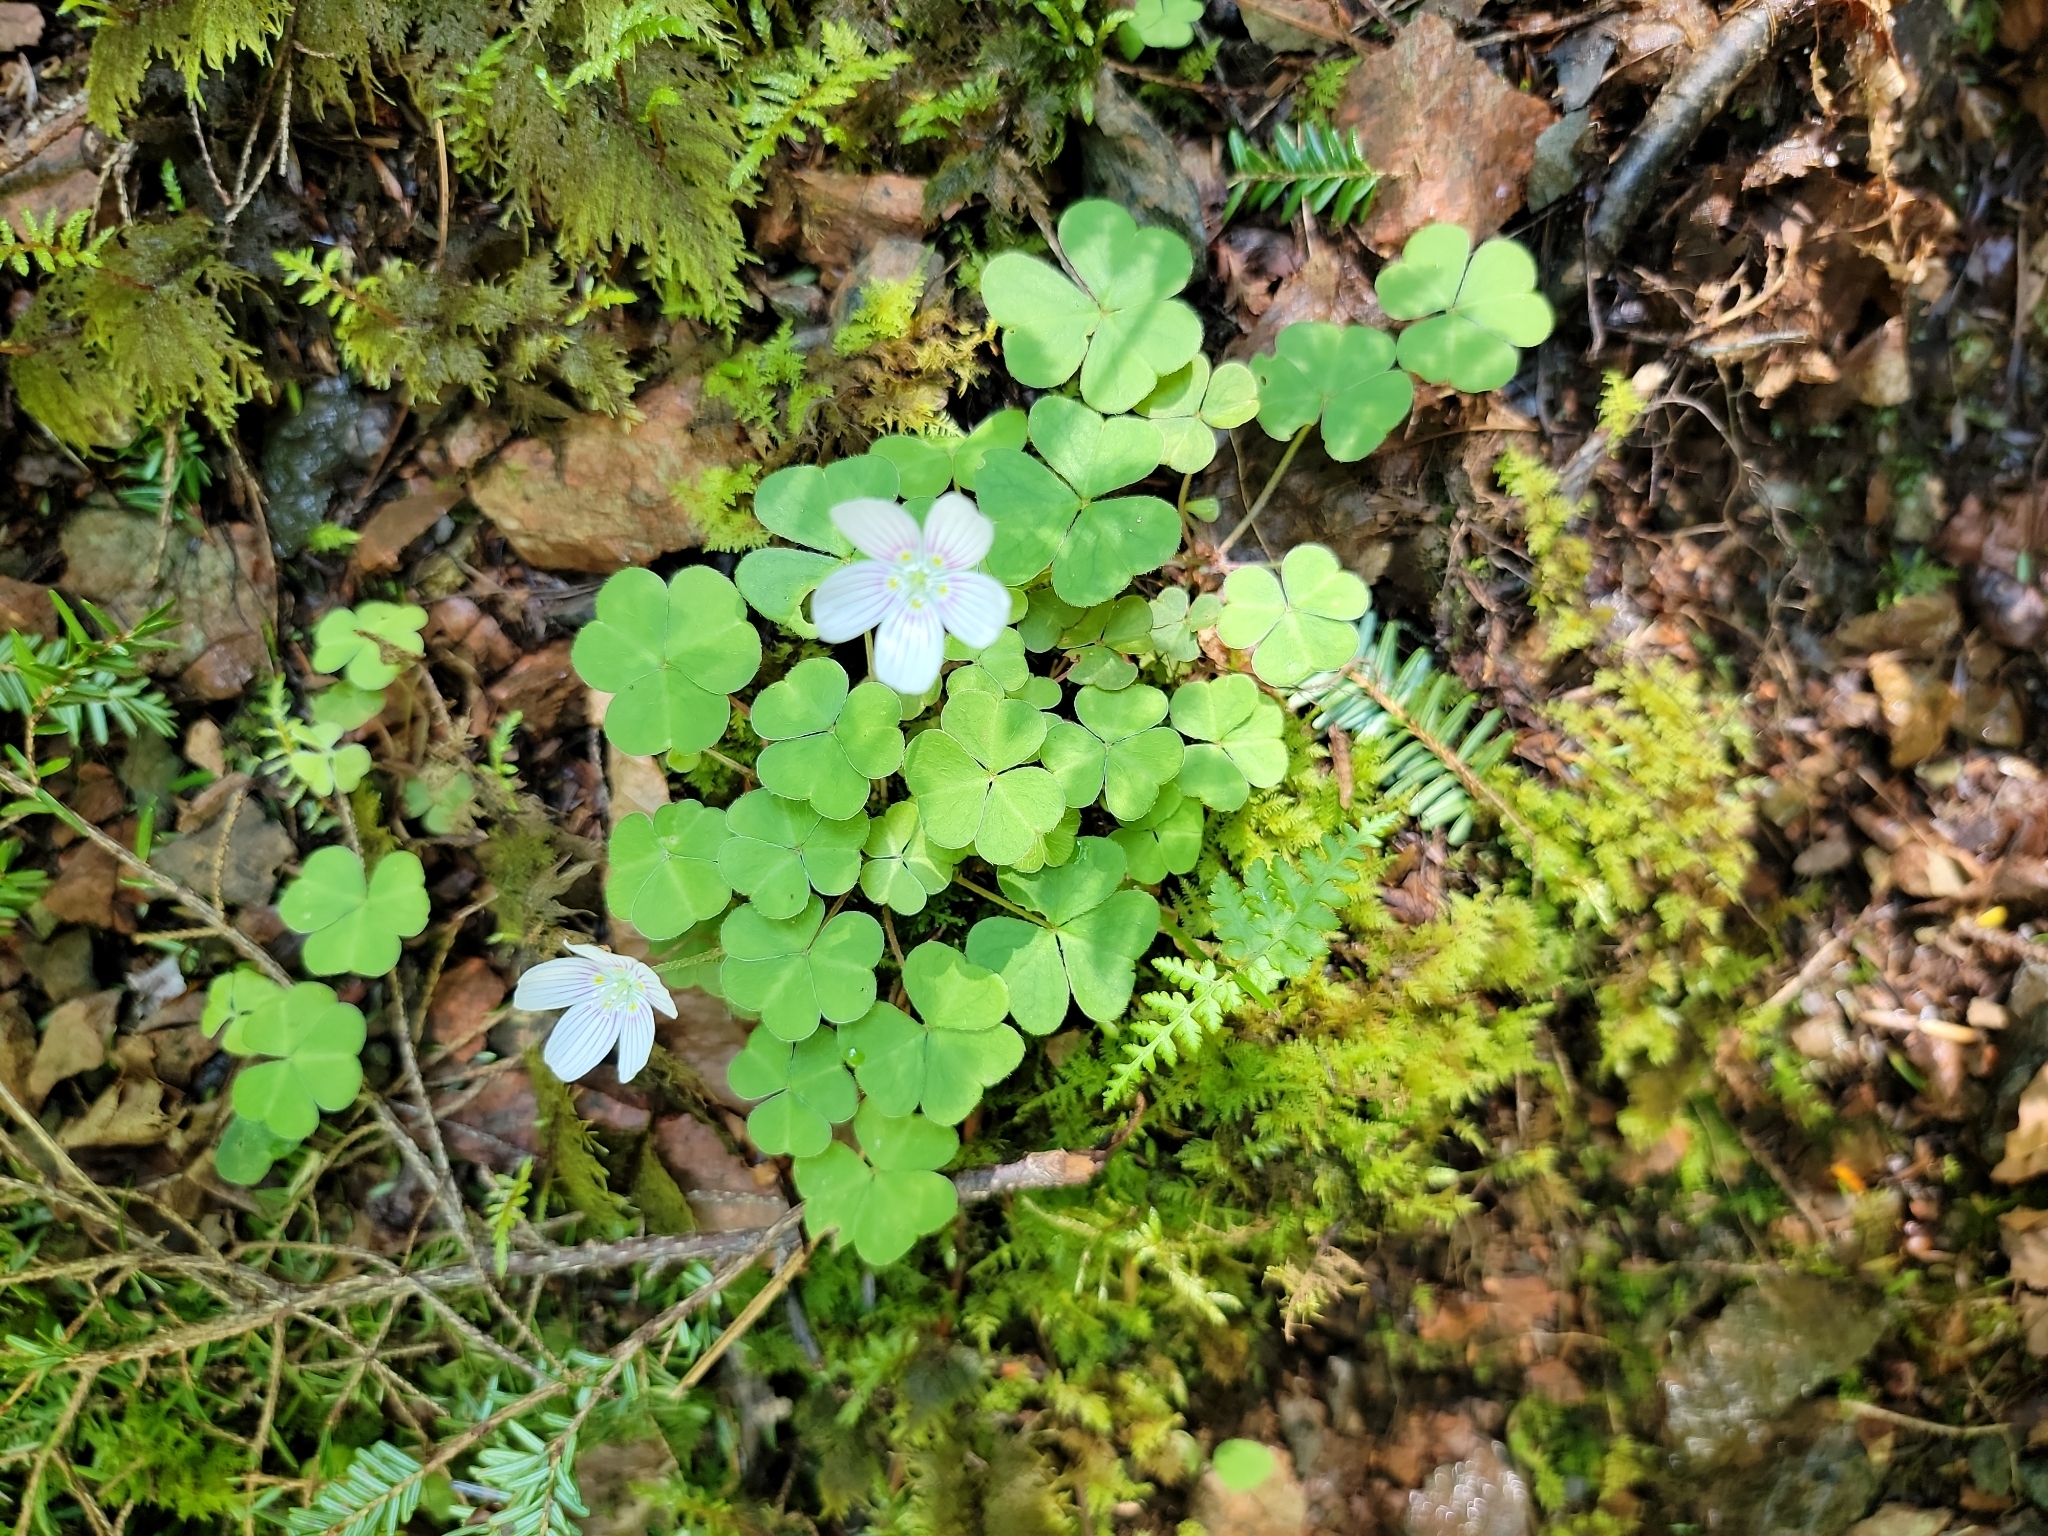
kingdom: Plantae
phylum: Tracheophyta
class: Magnoliopsida
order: Oxalidales
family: Oxalidaceae
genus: Oxalis
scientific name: Oxalis montana
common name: American wood-sorrel
